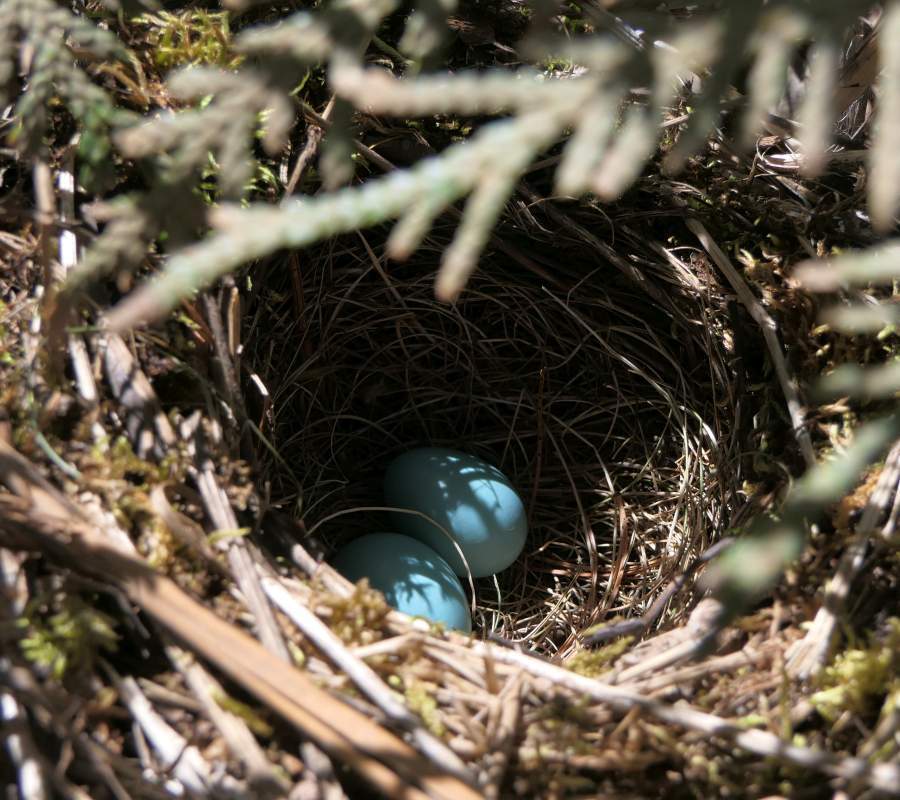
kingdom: Animalia
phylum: Chordata
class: Aves
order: Passeriformes
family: Turdidae
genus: Catharus
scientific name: Catharus guttatus
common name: Hermit thrush
